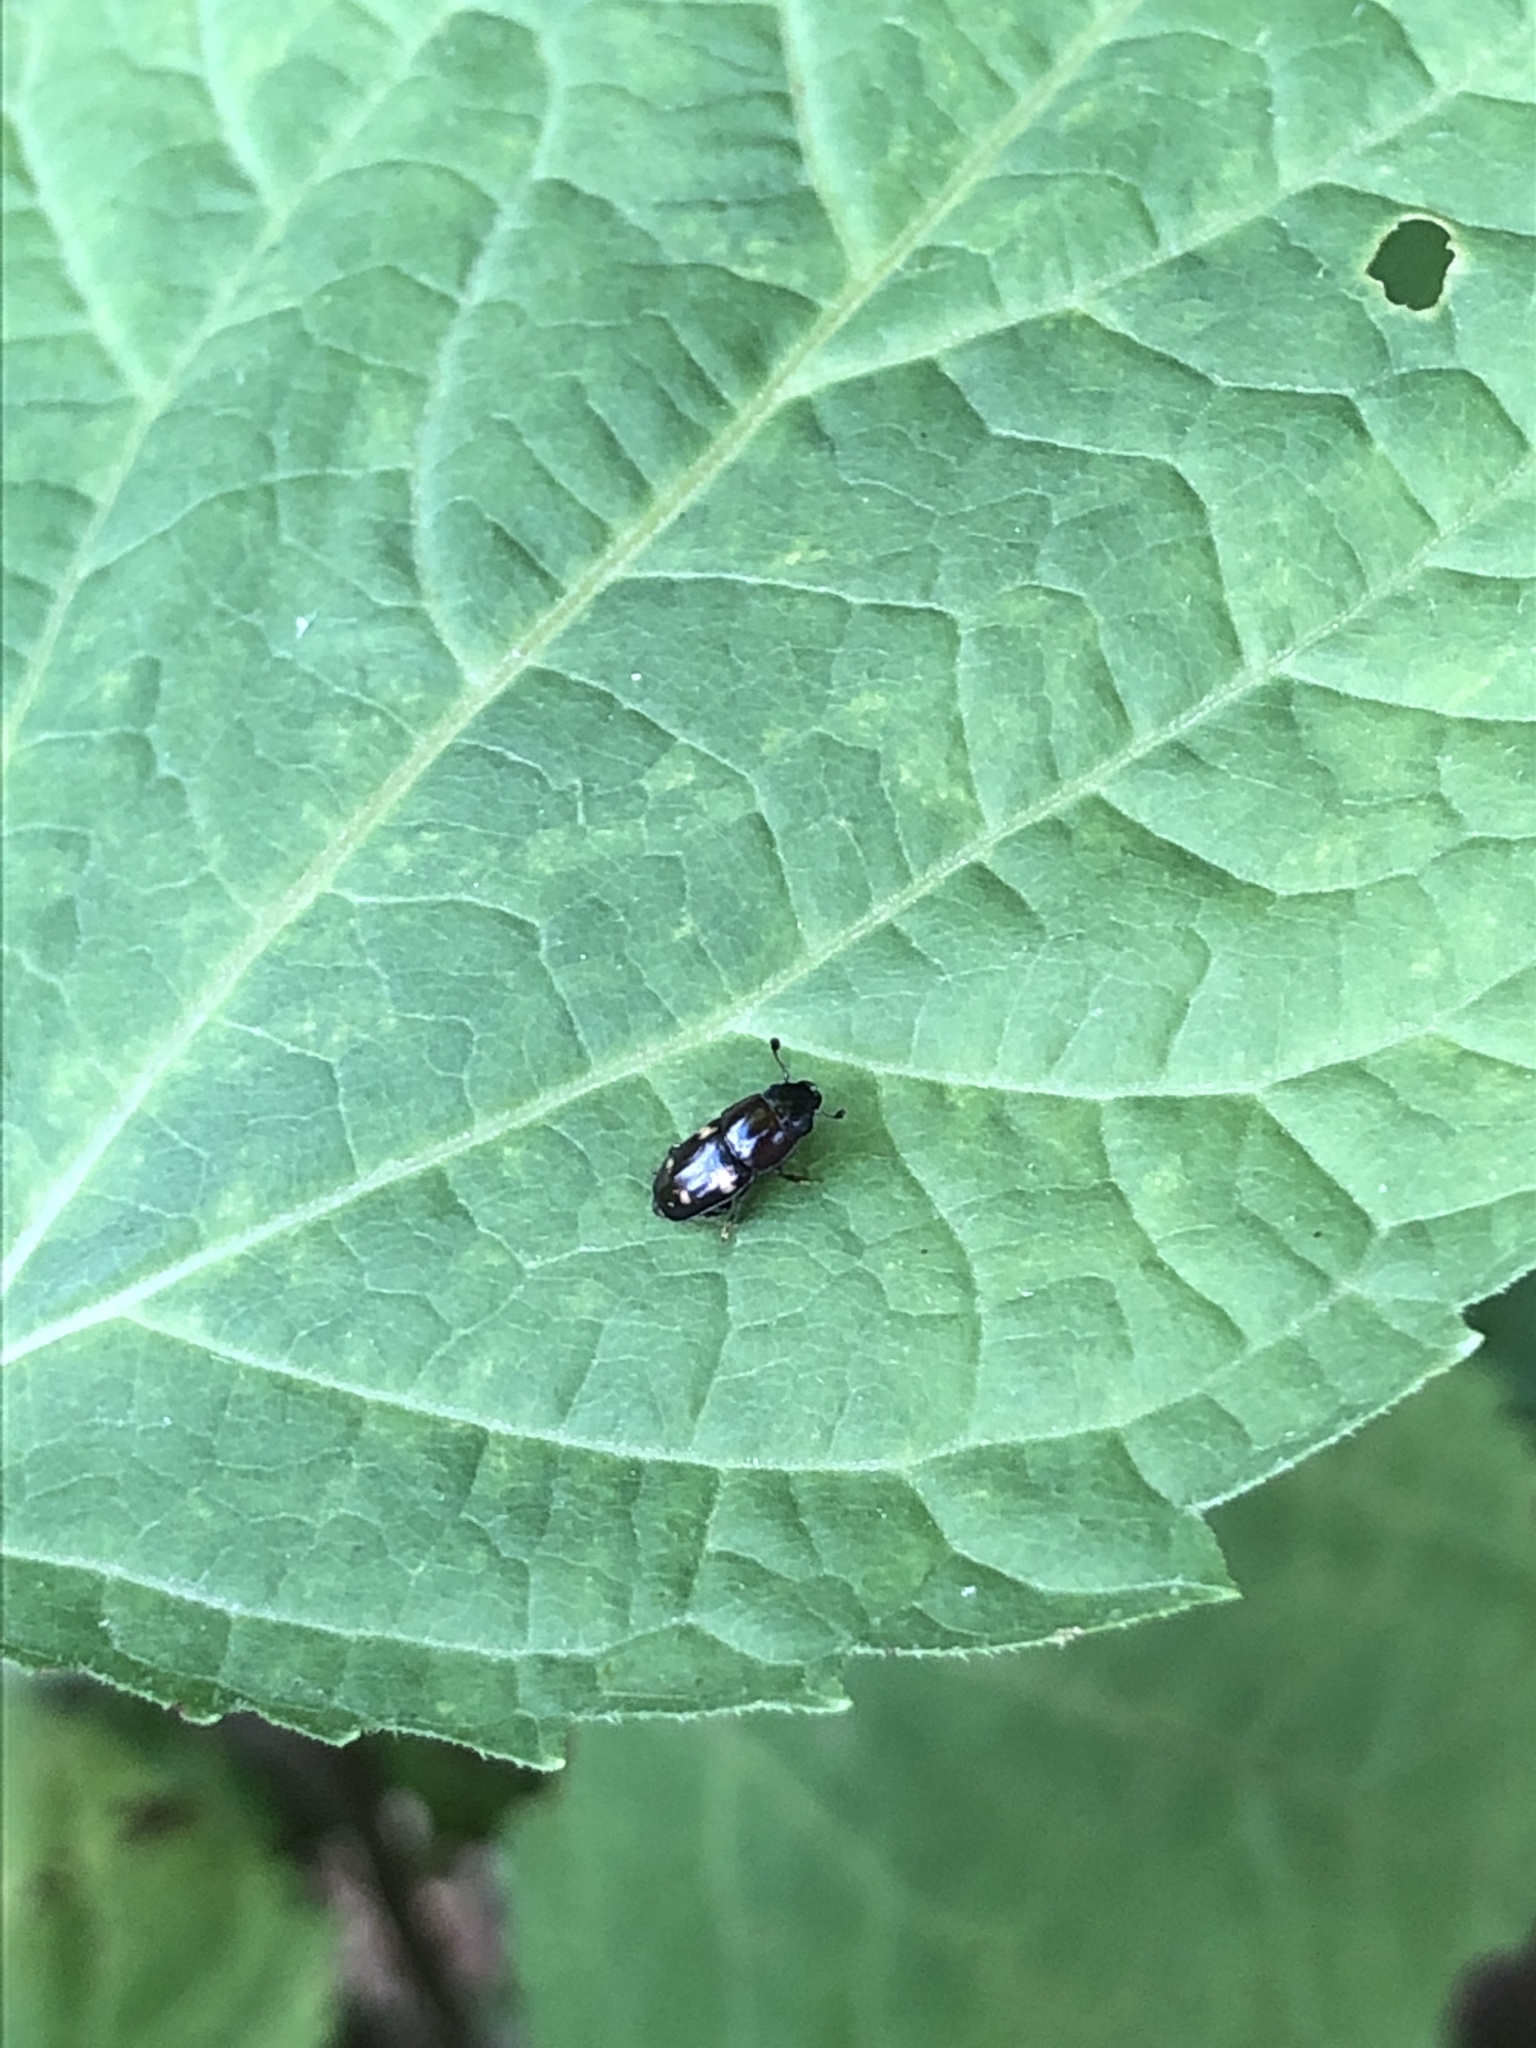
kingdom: Animalia
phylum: Arthropoda
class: Insecta
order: Coleoptera
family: Nitidulidae
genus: Glischrochilus
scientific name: Glischrochilus quadrisignatus
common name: Picnic beetle
